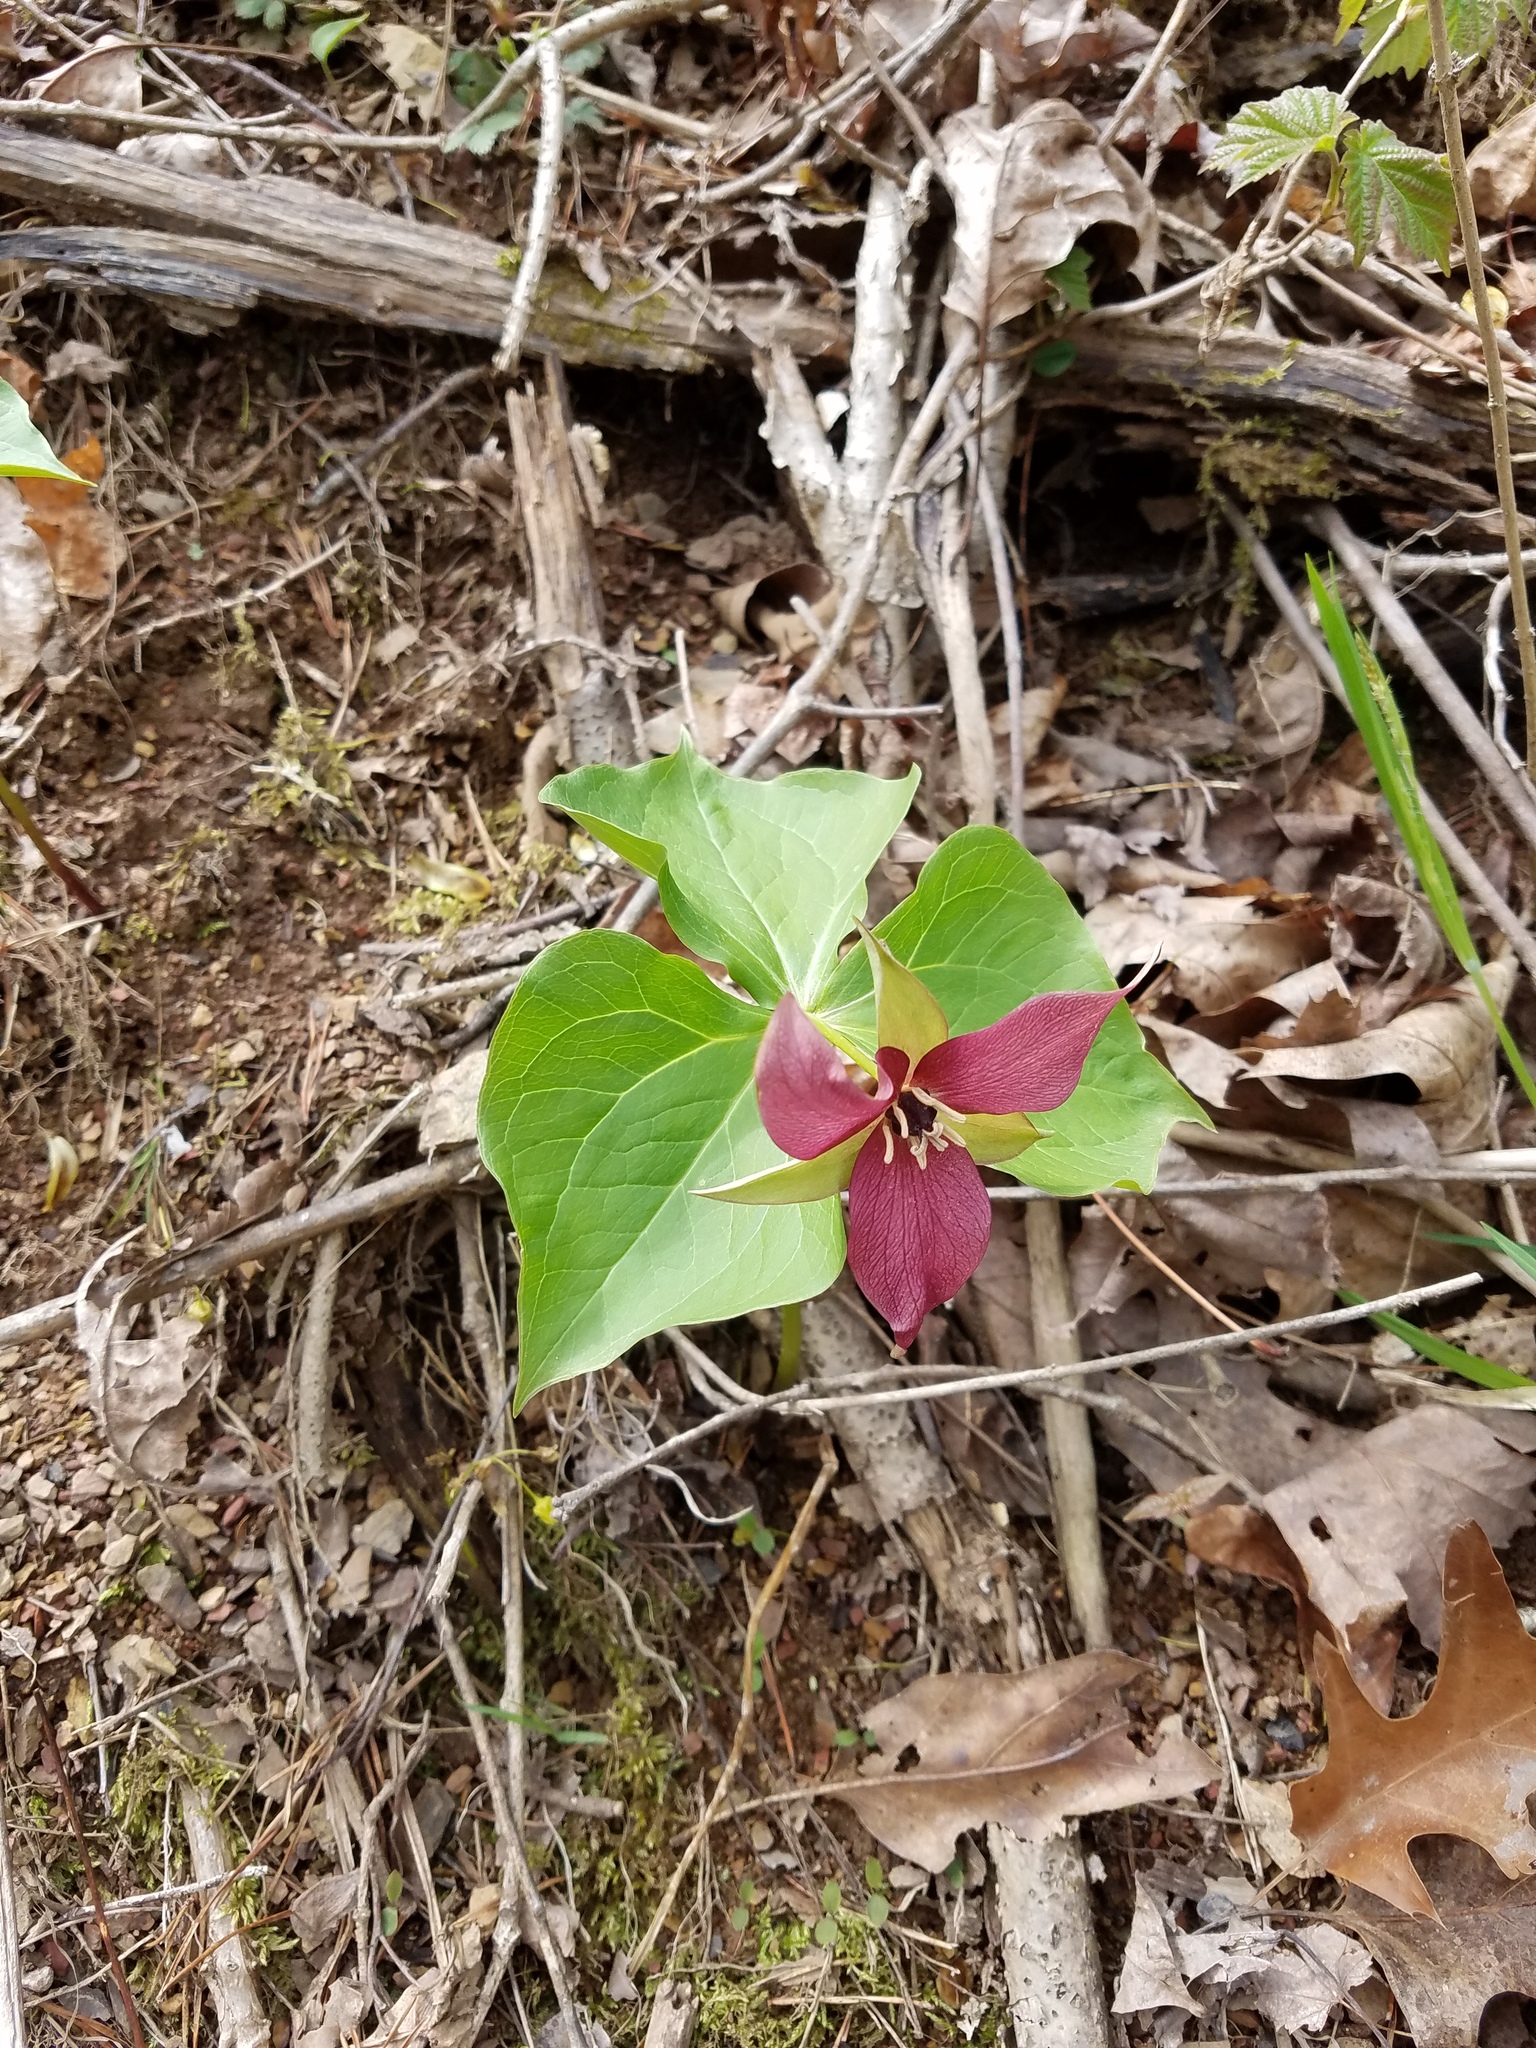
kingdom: Plantae
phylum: Tracheophyta
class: Liliopsida
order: Liliales
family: Melanthiaceae
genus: Trillium
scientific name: Trillium erectum
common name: Purple trillium
